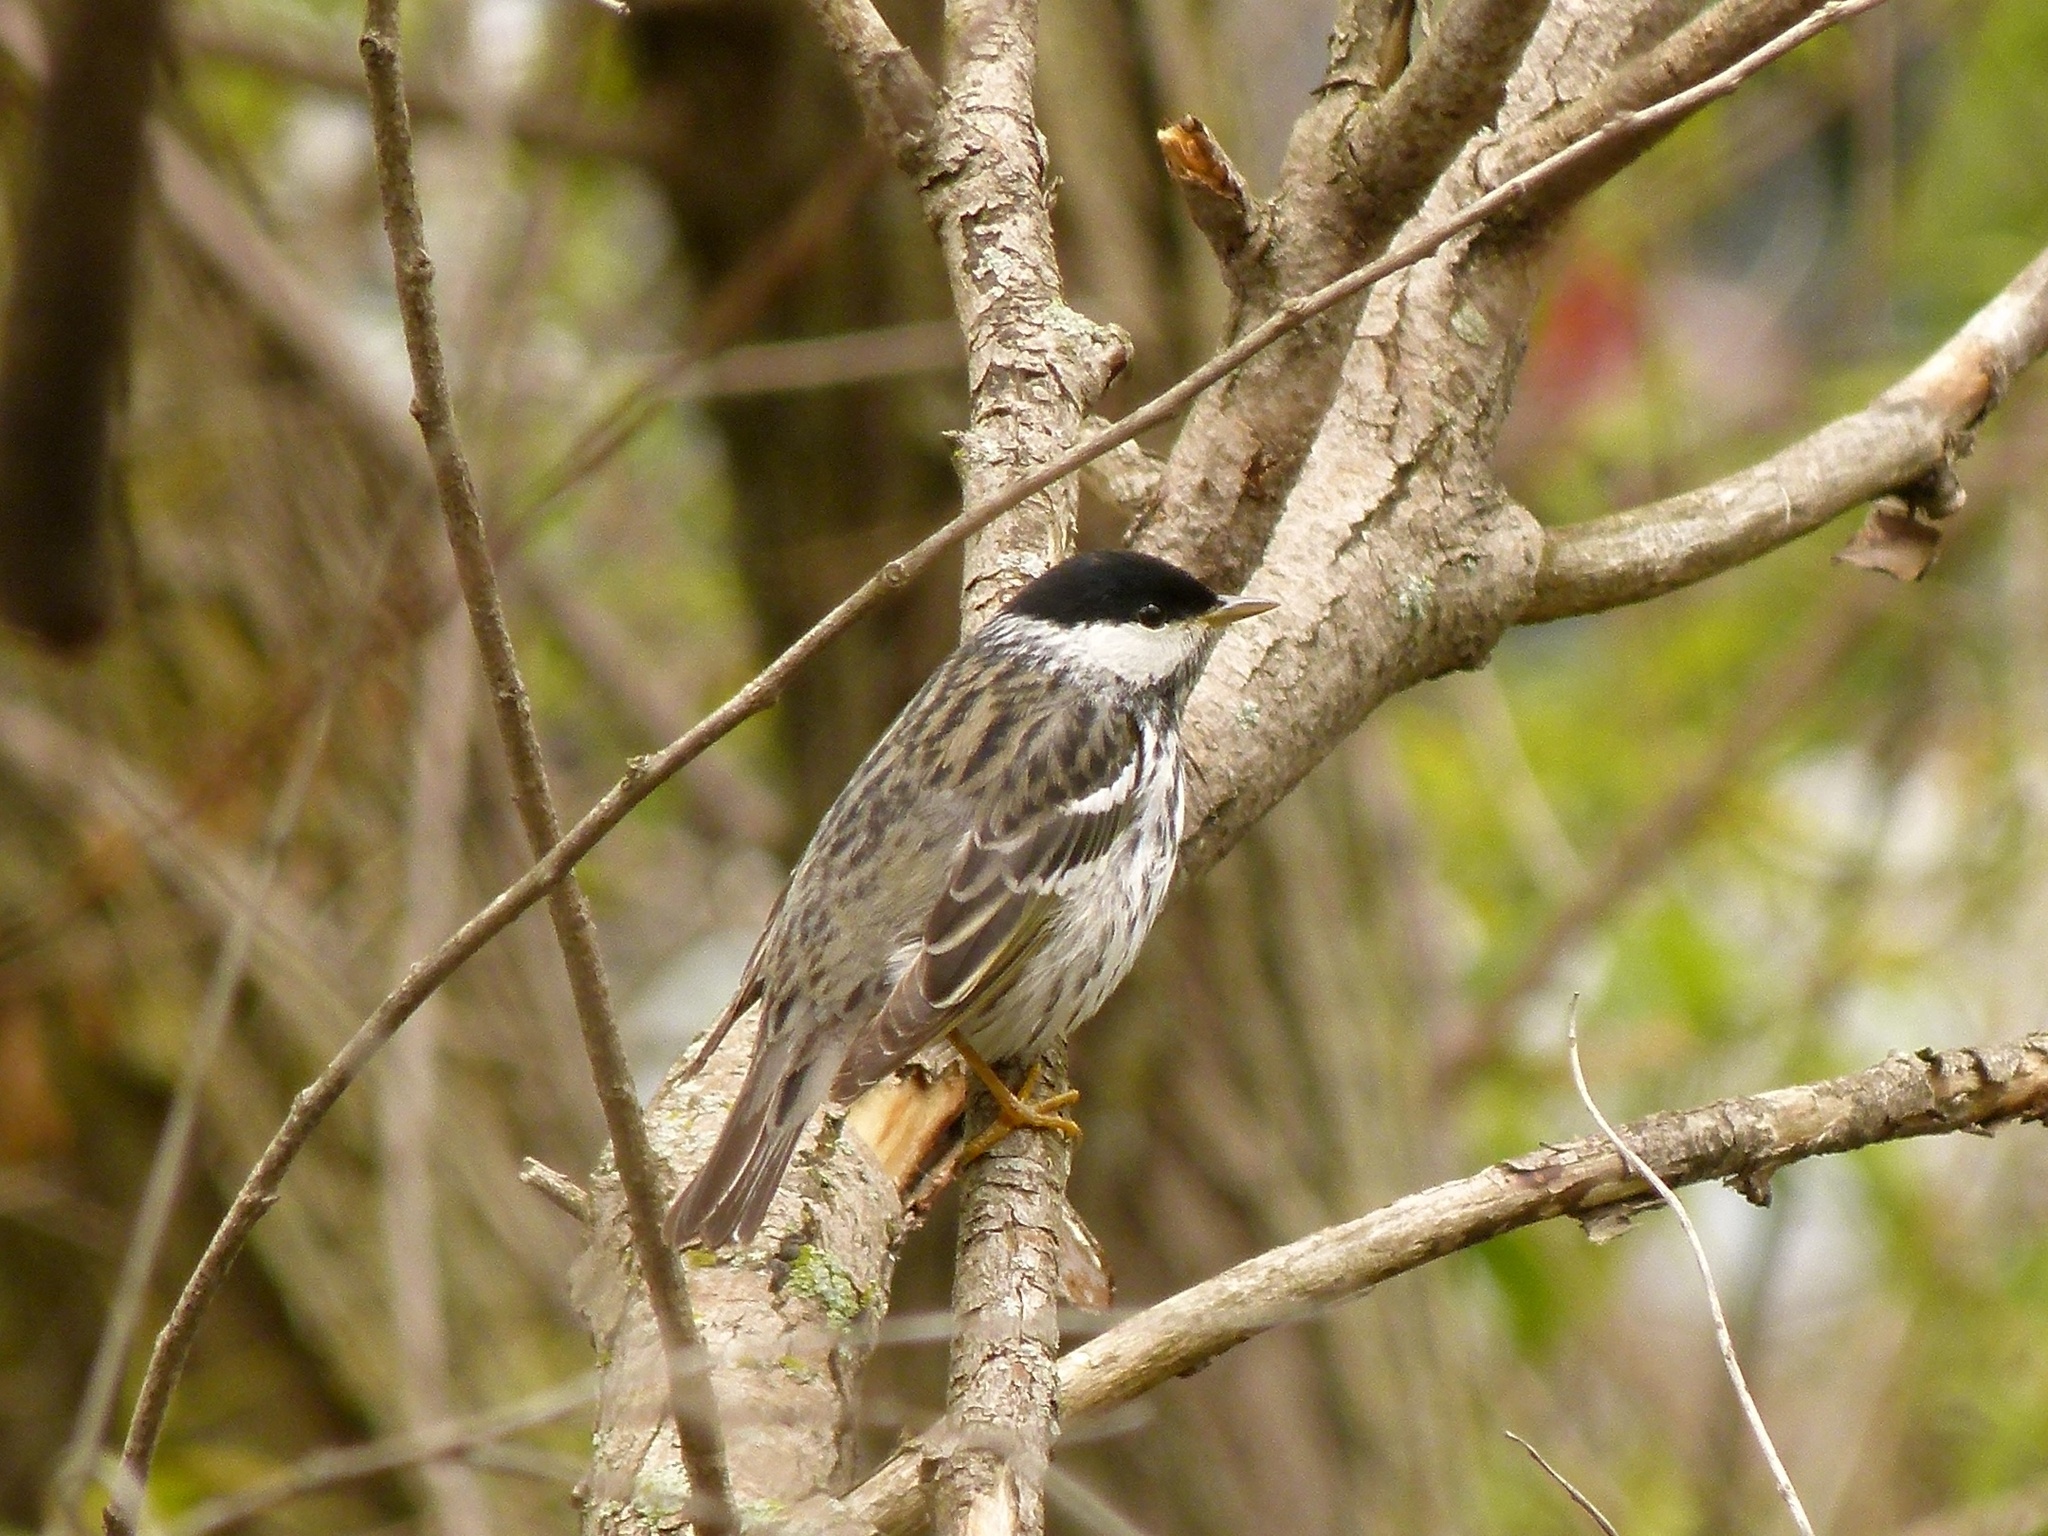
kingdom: Animalia
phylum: Chordata
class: Aves
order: Passeriformes
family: Parulidae
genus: Setophaga
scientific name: Setophaga striata
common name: Blackpoll warbler
